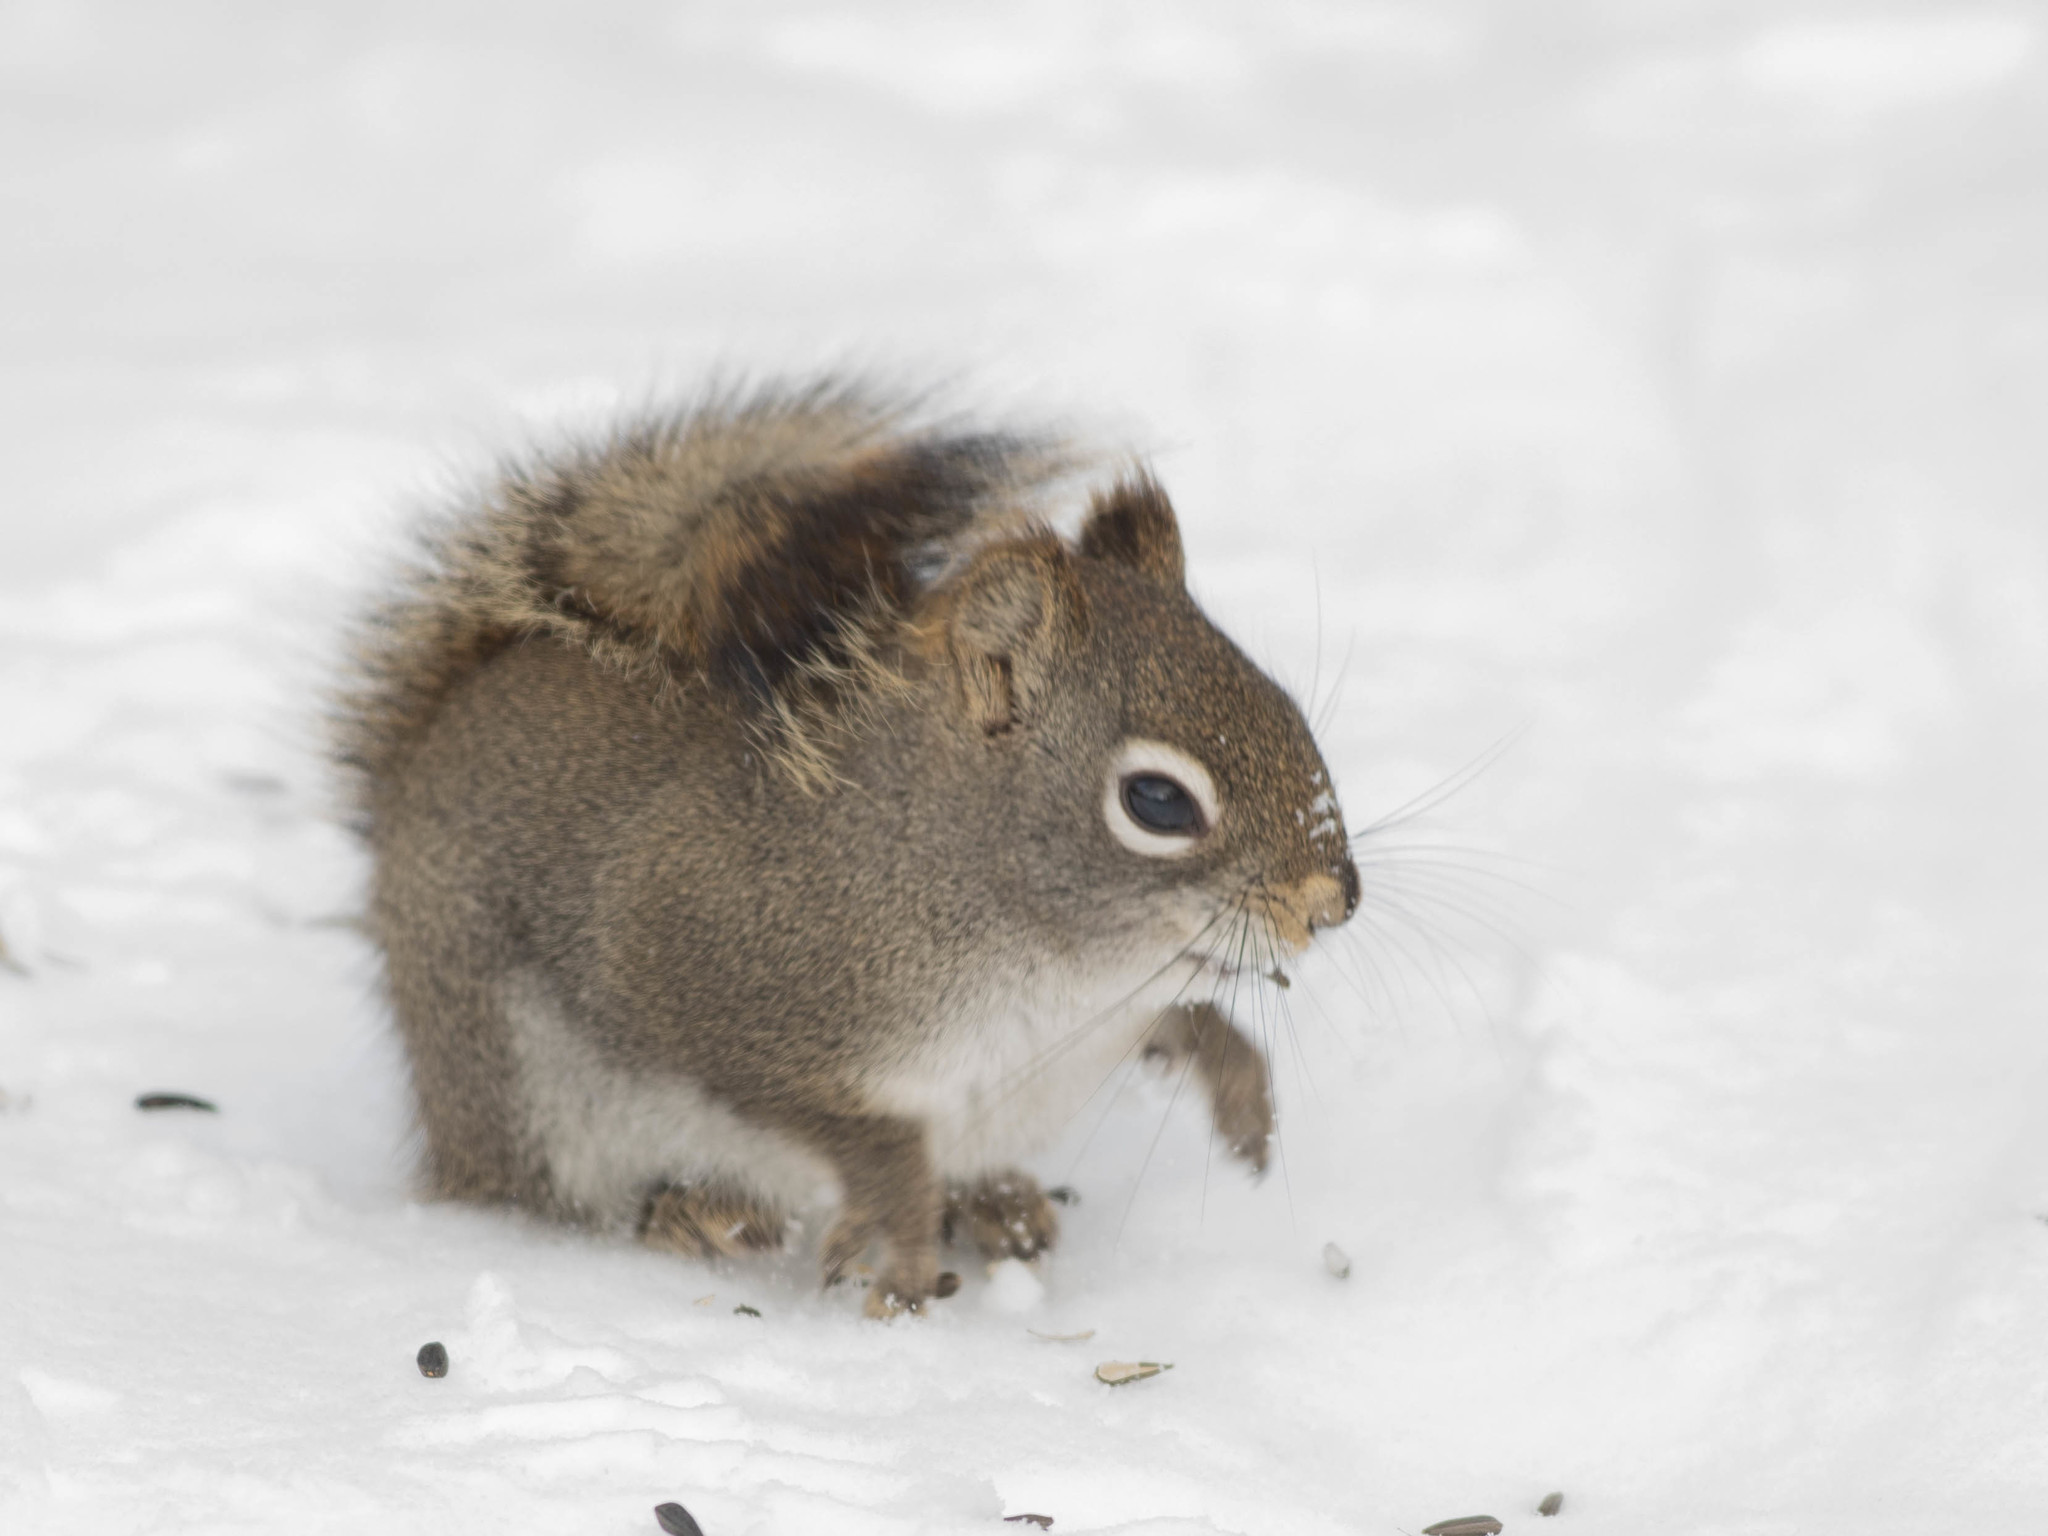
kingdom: Animalia
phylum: Chordata
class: Mammalia
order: Rodentia
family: Sciuridae
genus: Tamiasciurus
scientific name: Tamiasciurus hudsonicus
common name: Red squirrel
